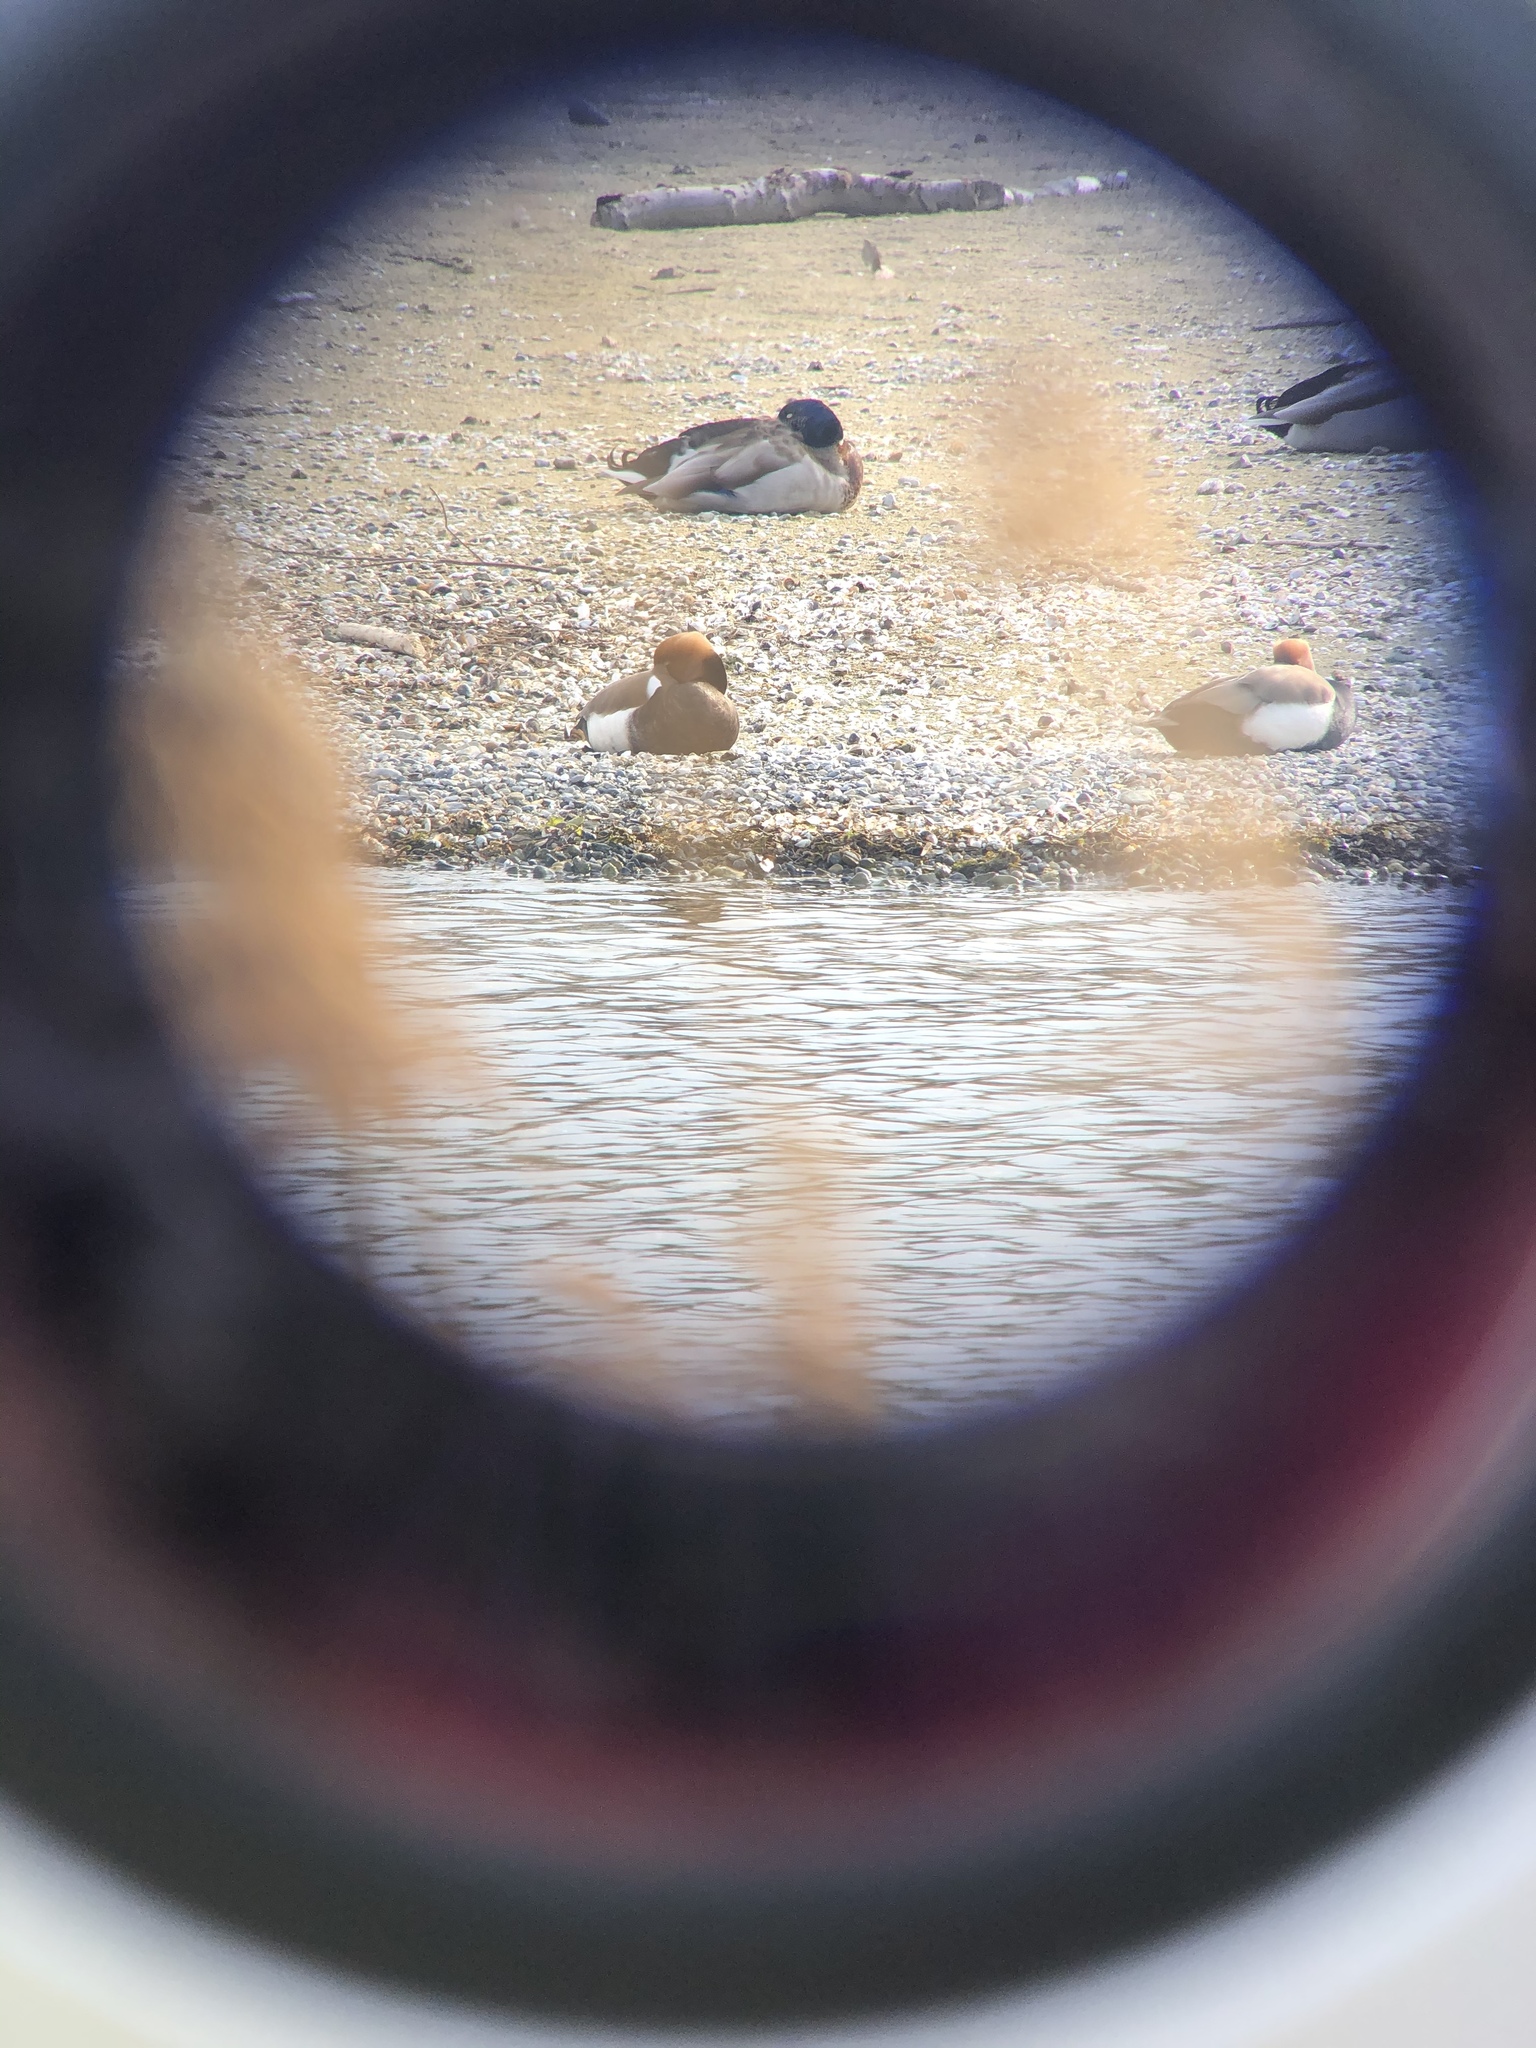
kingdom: Animalia
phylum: Chordata
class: Aves
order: Anseriformes
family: Anatidae
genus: Netta
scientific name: Netta rufina
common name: Red-crested pochard
